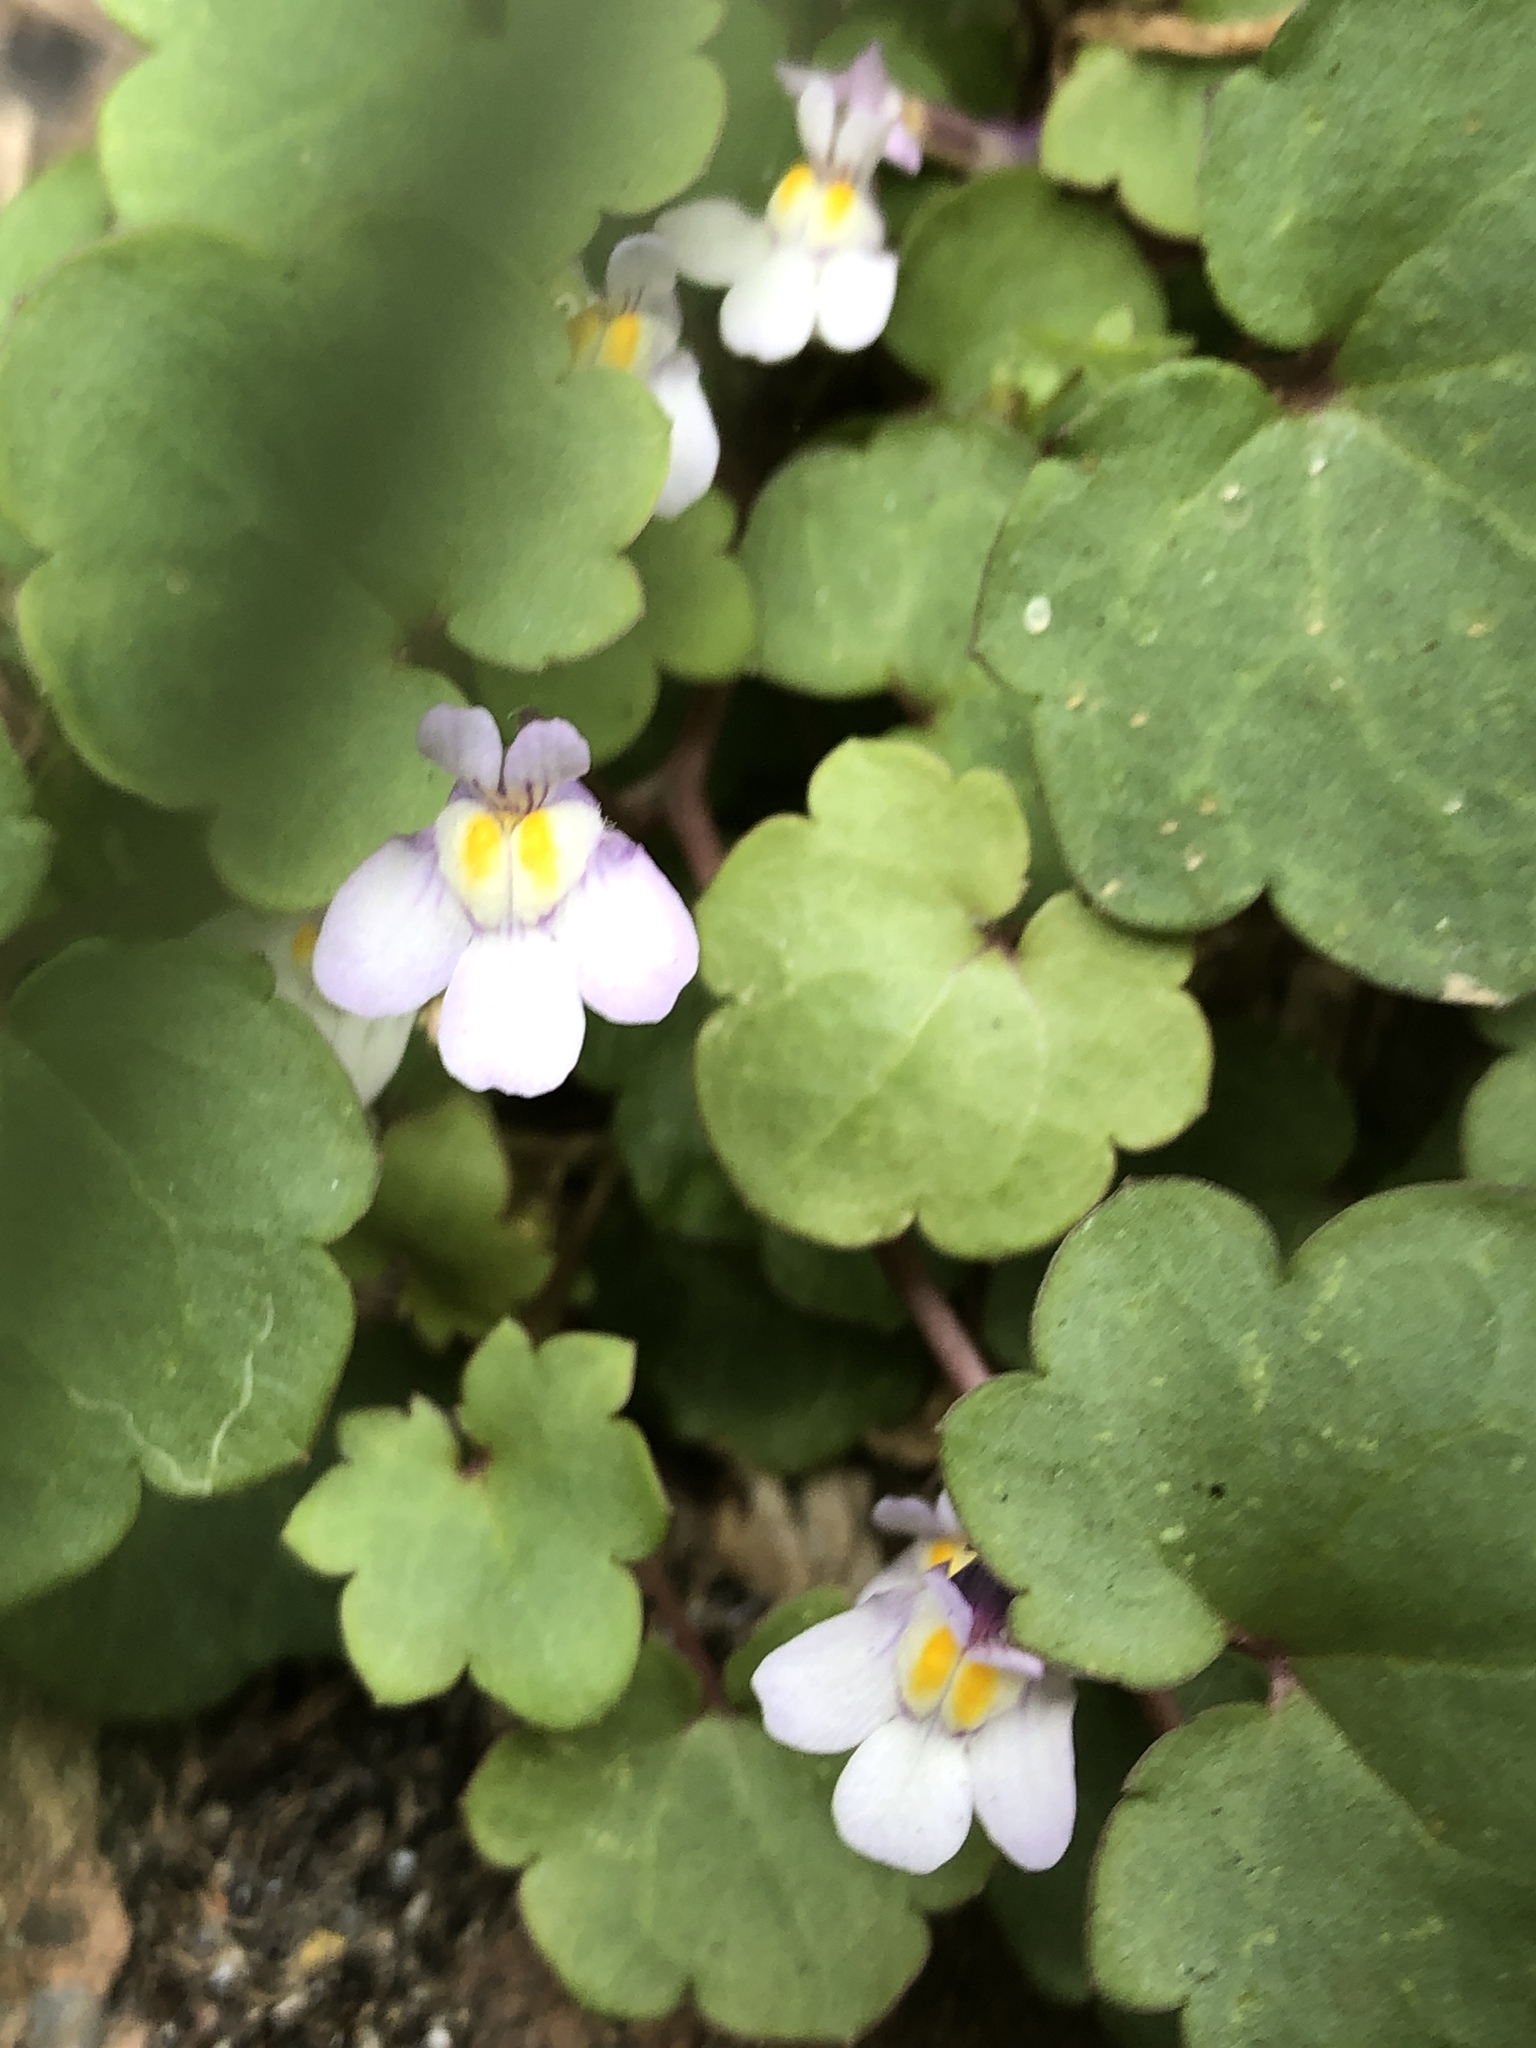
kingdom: Plantae
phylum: Tracheophyta
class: Magnoliopsida
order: Lamiales
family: Plantaginaceae
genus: Cymbalaria
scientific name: Cymbalaria muralis
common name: Ivy-leaved toadflax
